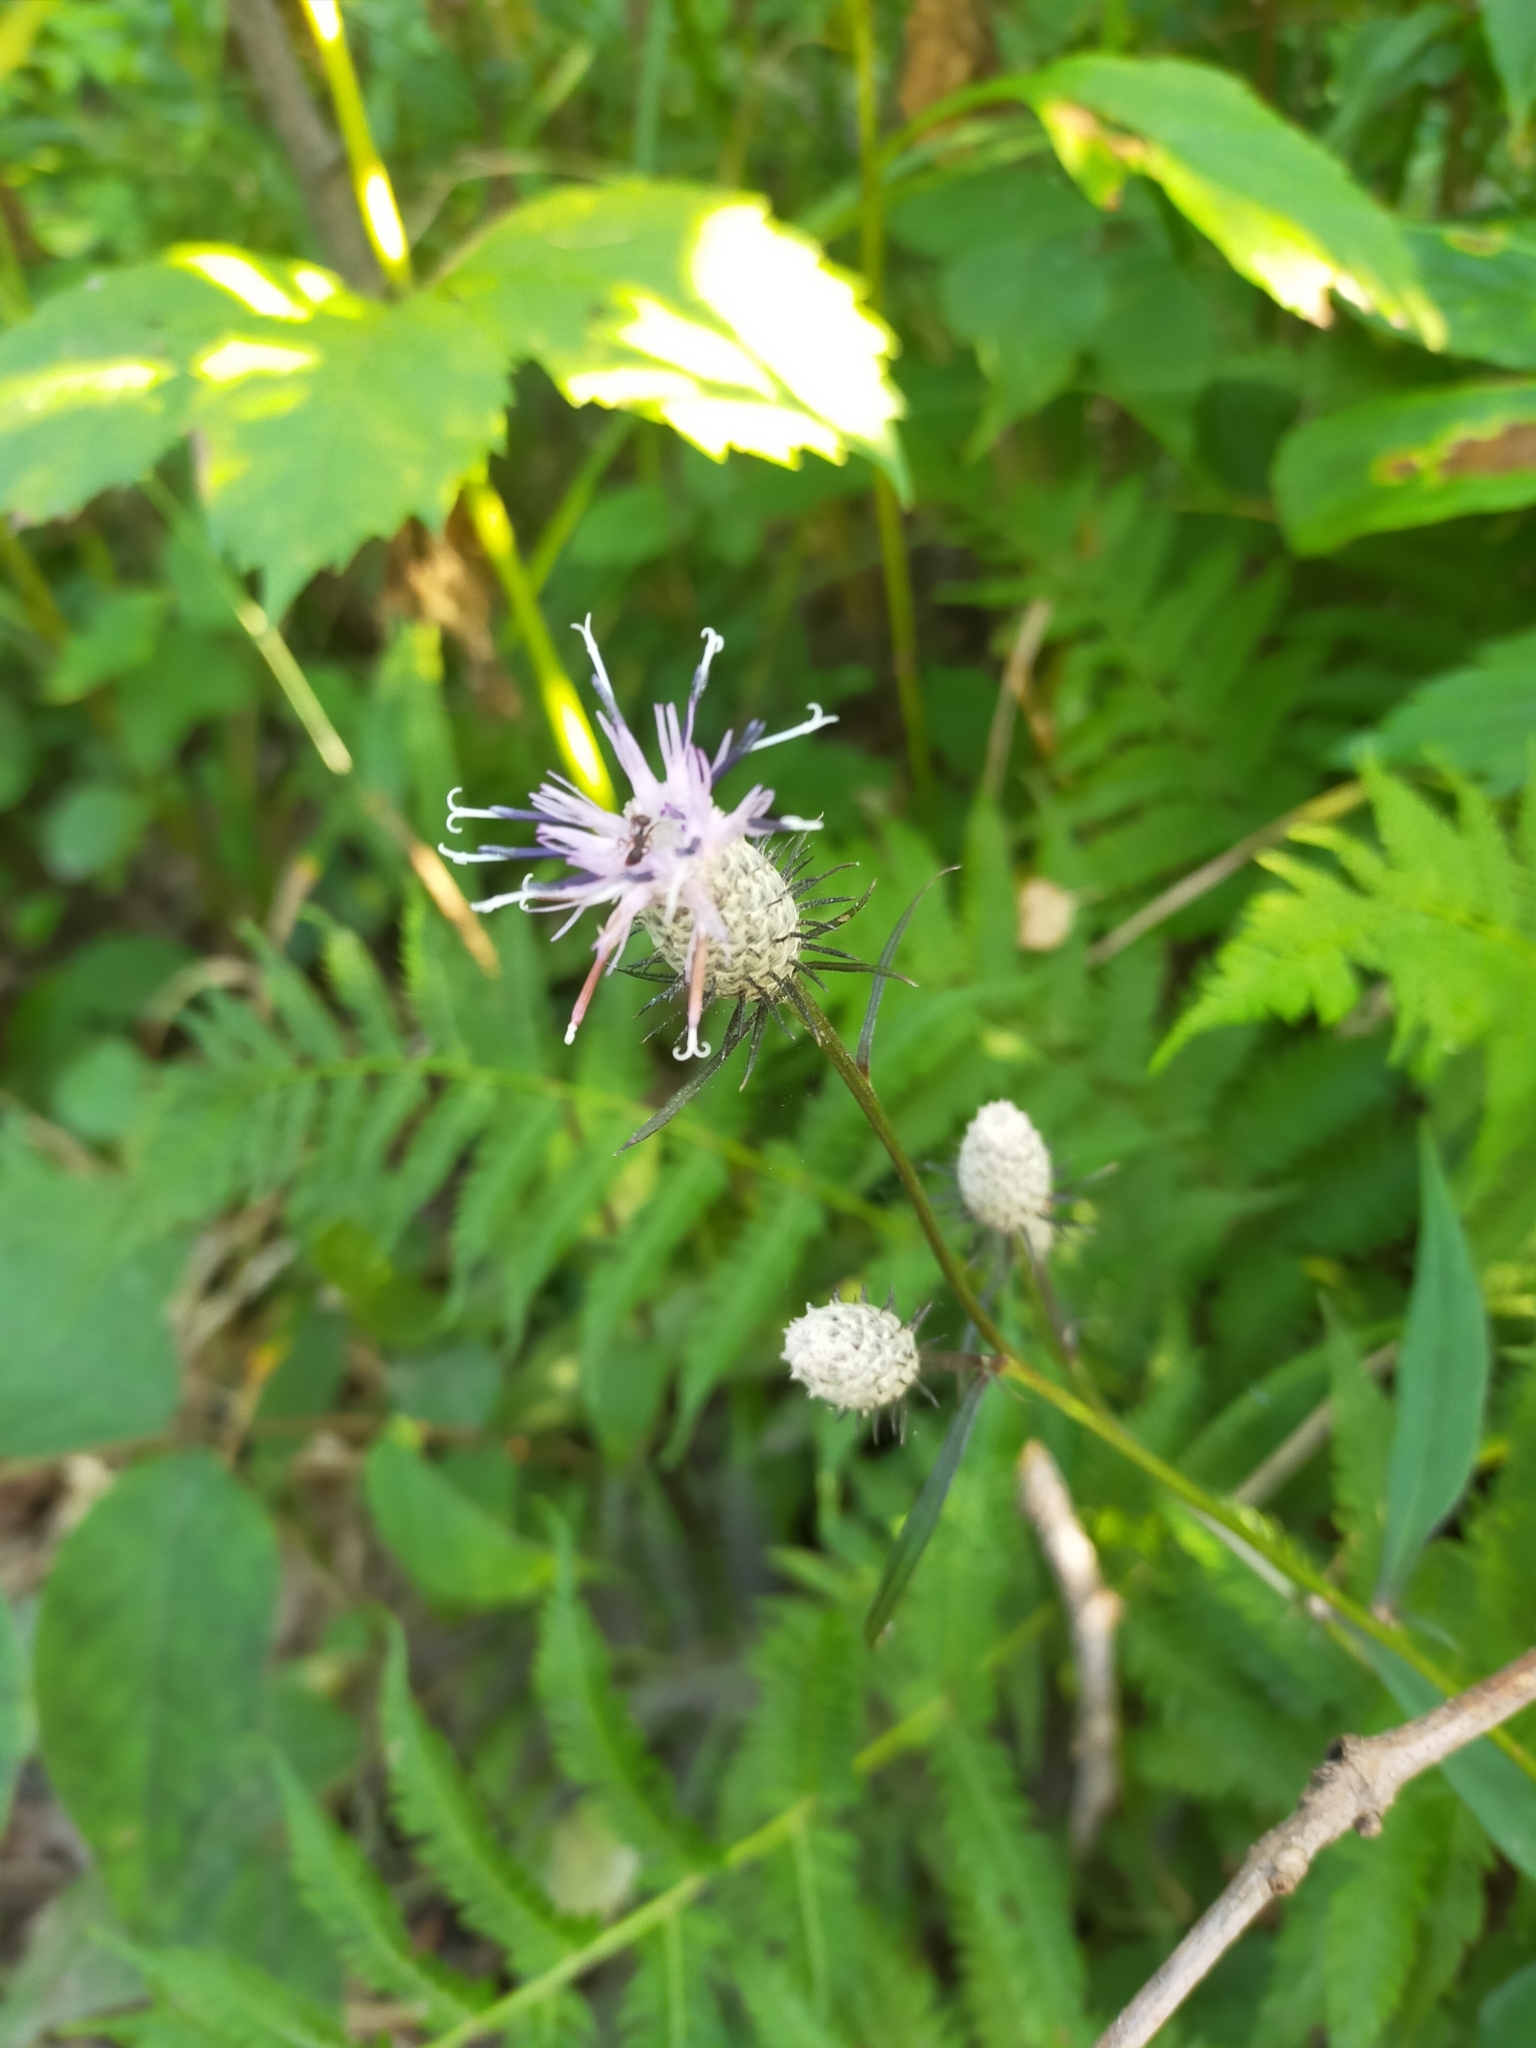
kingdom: Plantae
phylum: Tracheophyta
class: Magnoliopsida
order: Asterales
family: Asteraceae
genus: Saussurea
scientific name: Saussurea subtriangulata
